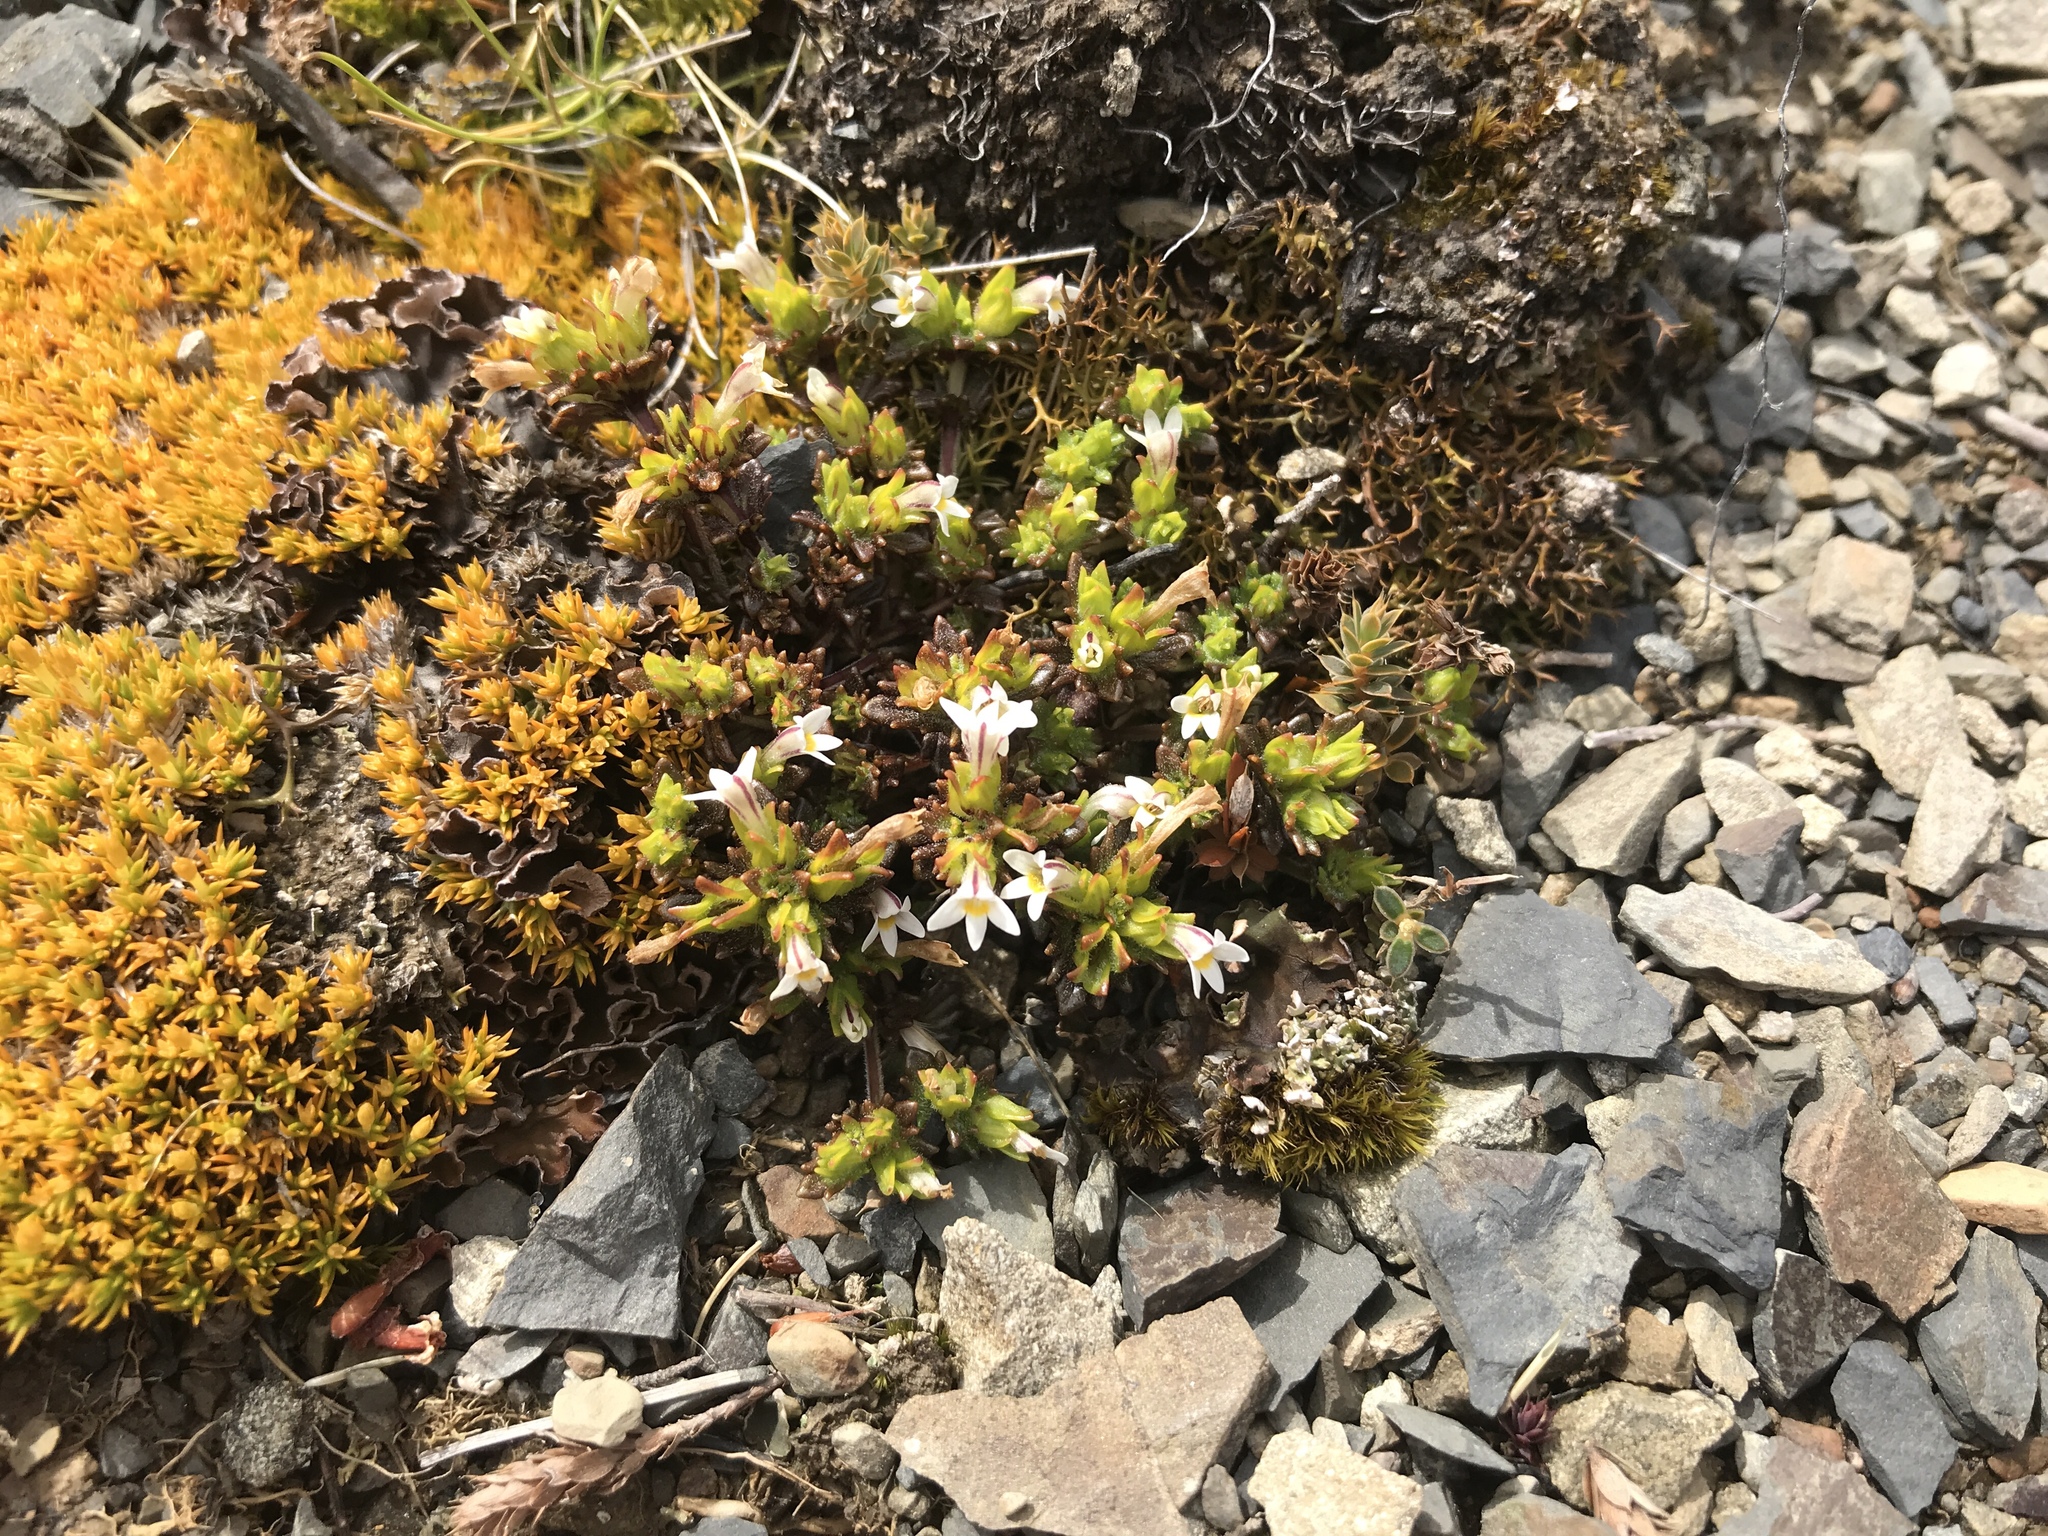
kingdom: Plantae
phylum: Tracheophyta
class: Magnoliopsida
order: Lamiales
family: Orobanchaceae
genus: Euphrasia
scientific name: Euphrasia zelandica
